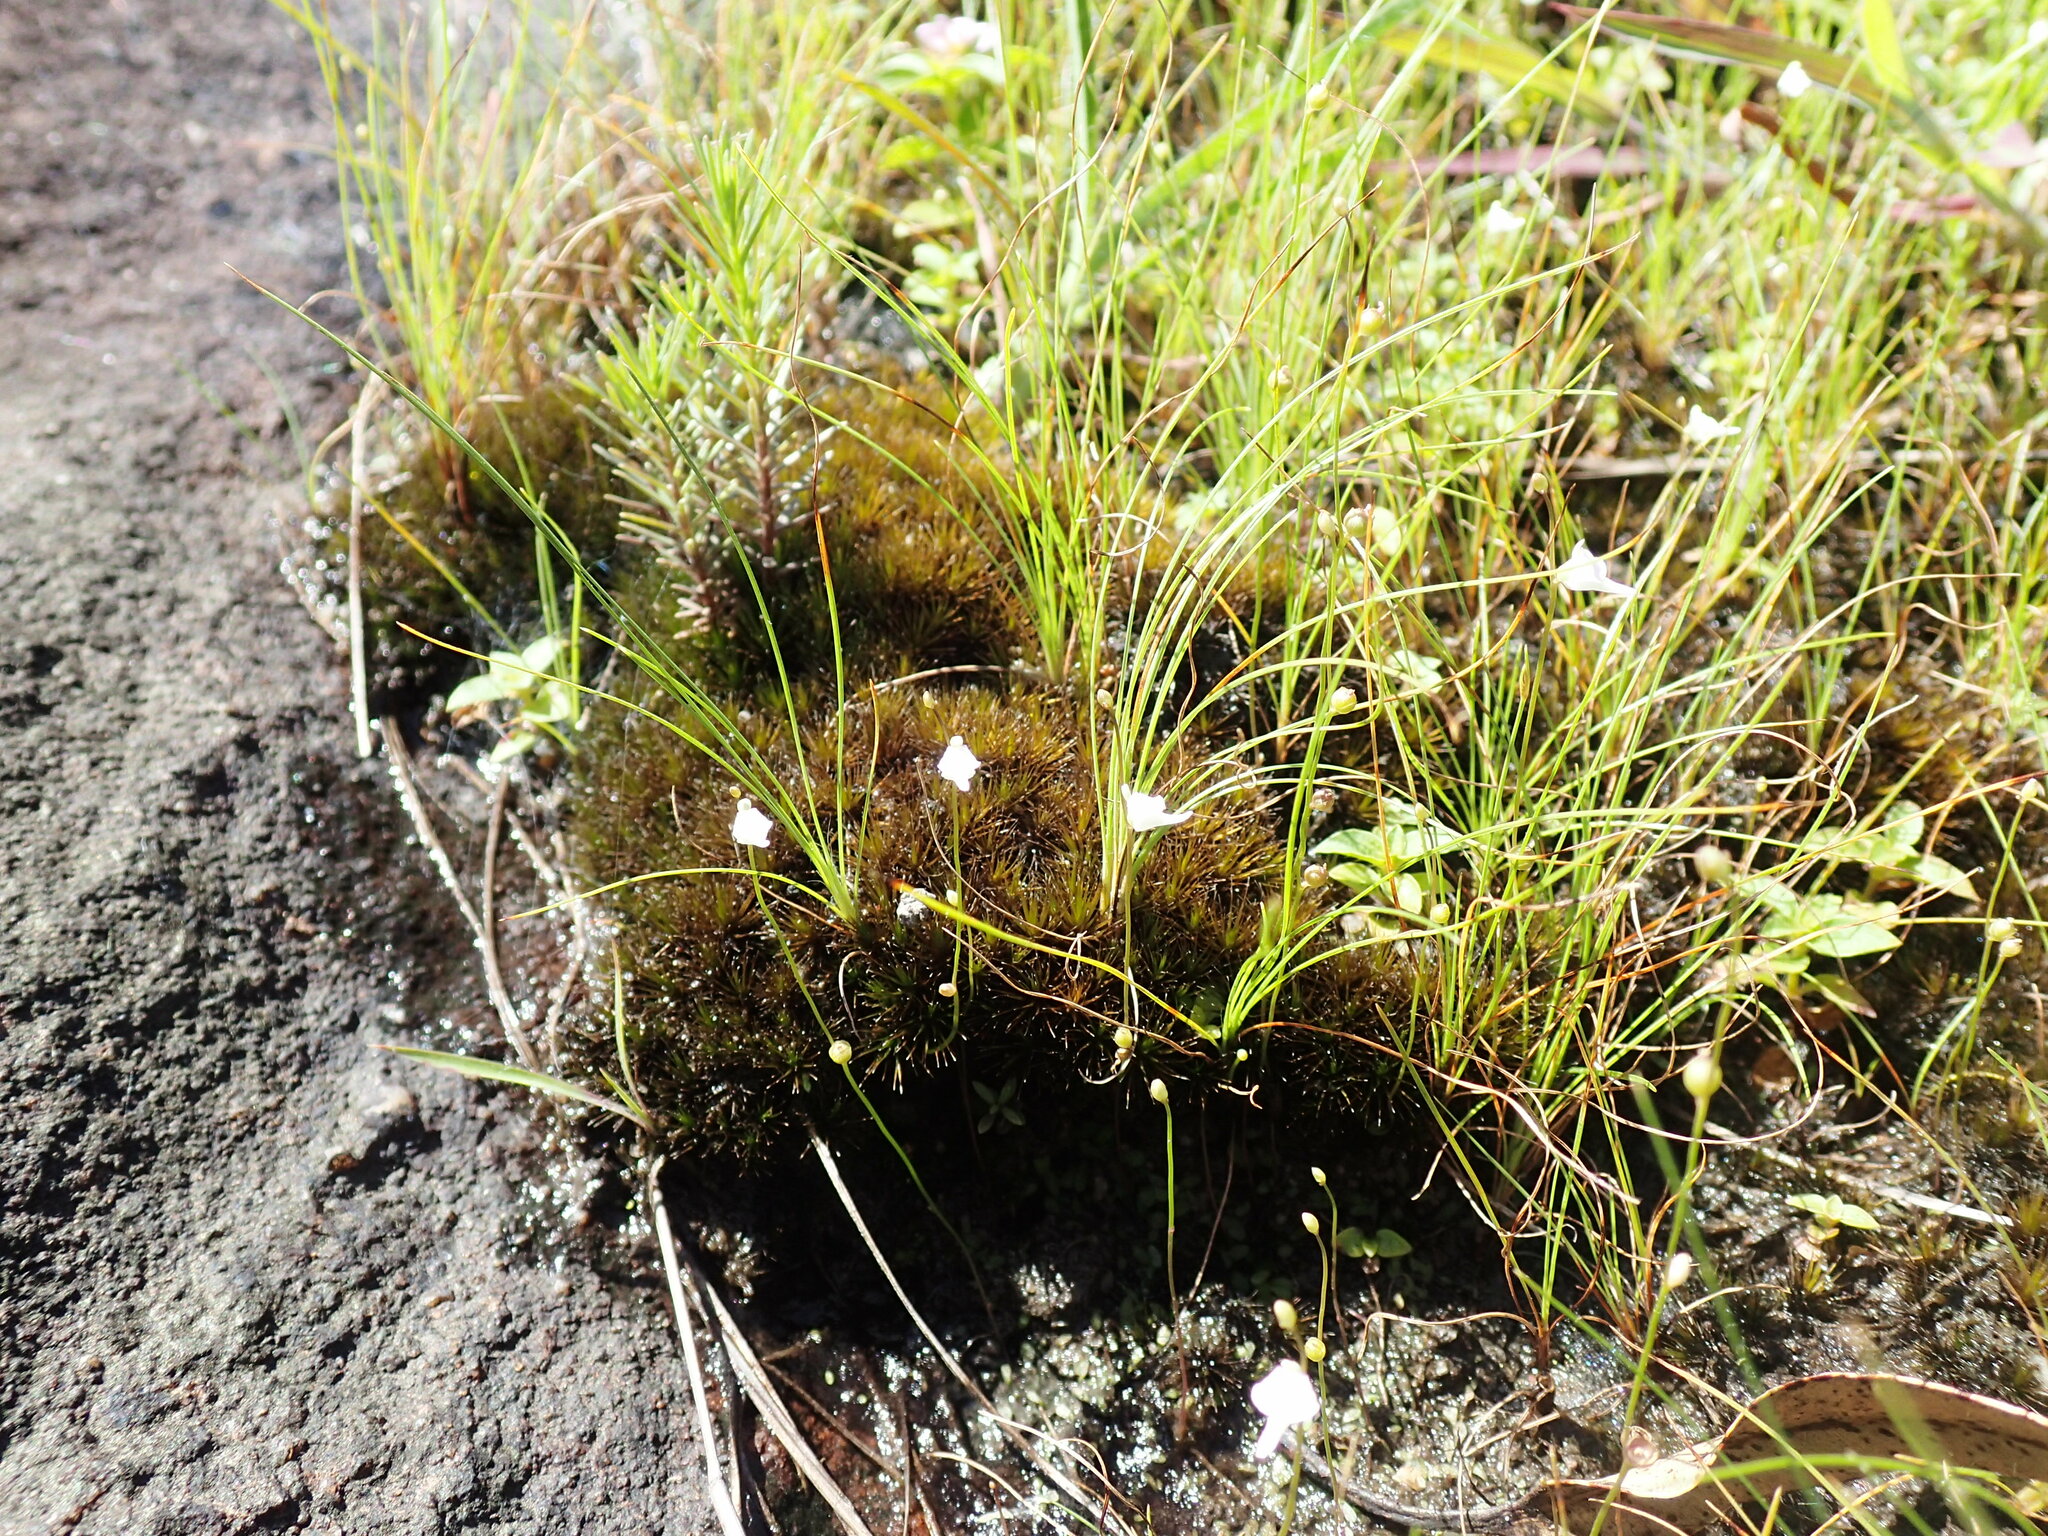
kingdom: Plantae
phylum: Tracheophyta
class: Magnoliopsida
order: Lamiales
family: Lentibulariaceae
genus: Utricularia
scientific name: Utricularia arenaria
